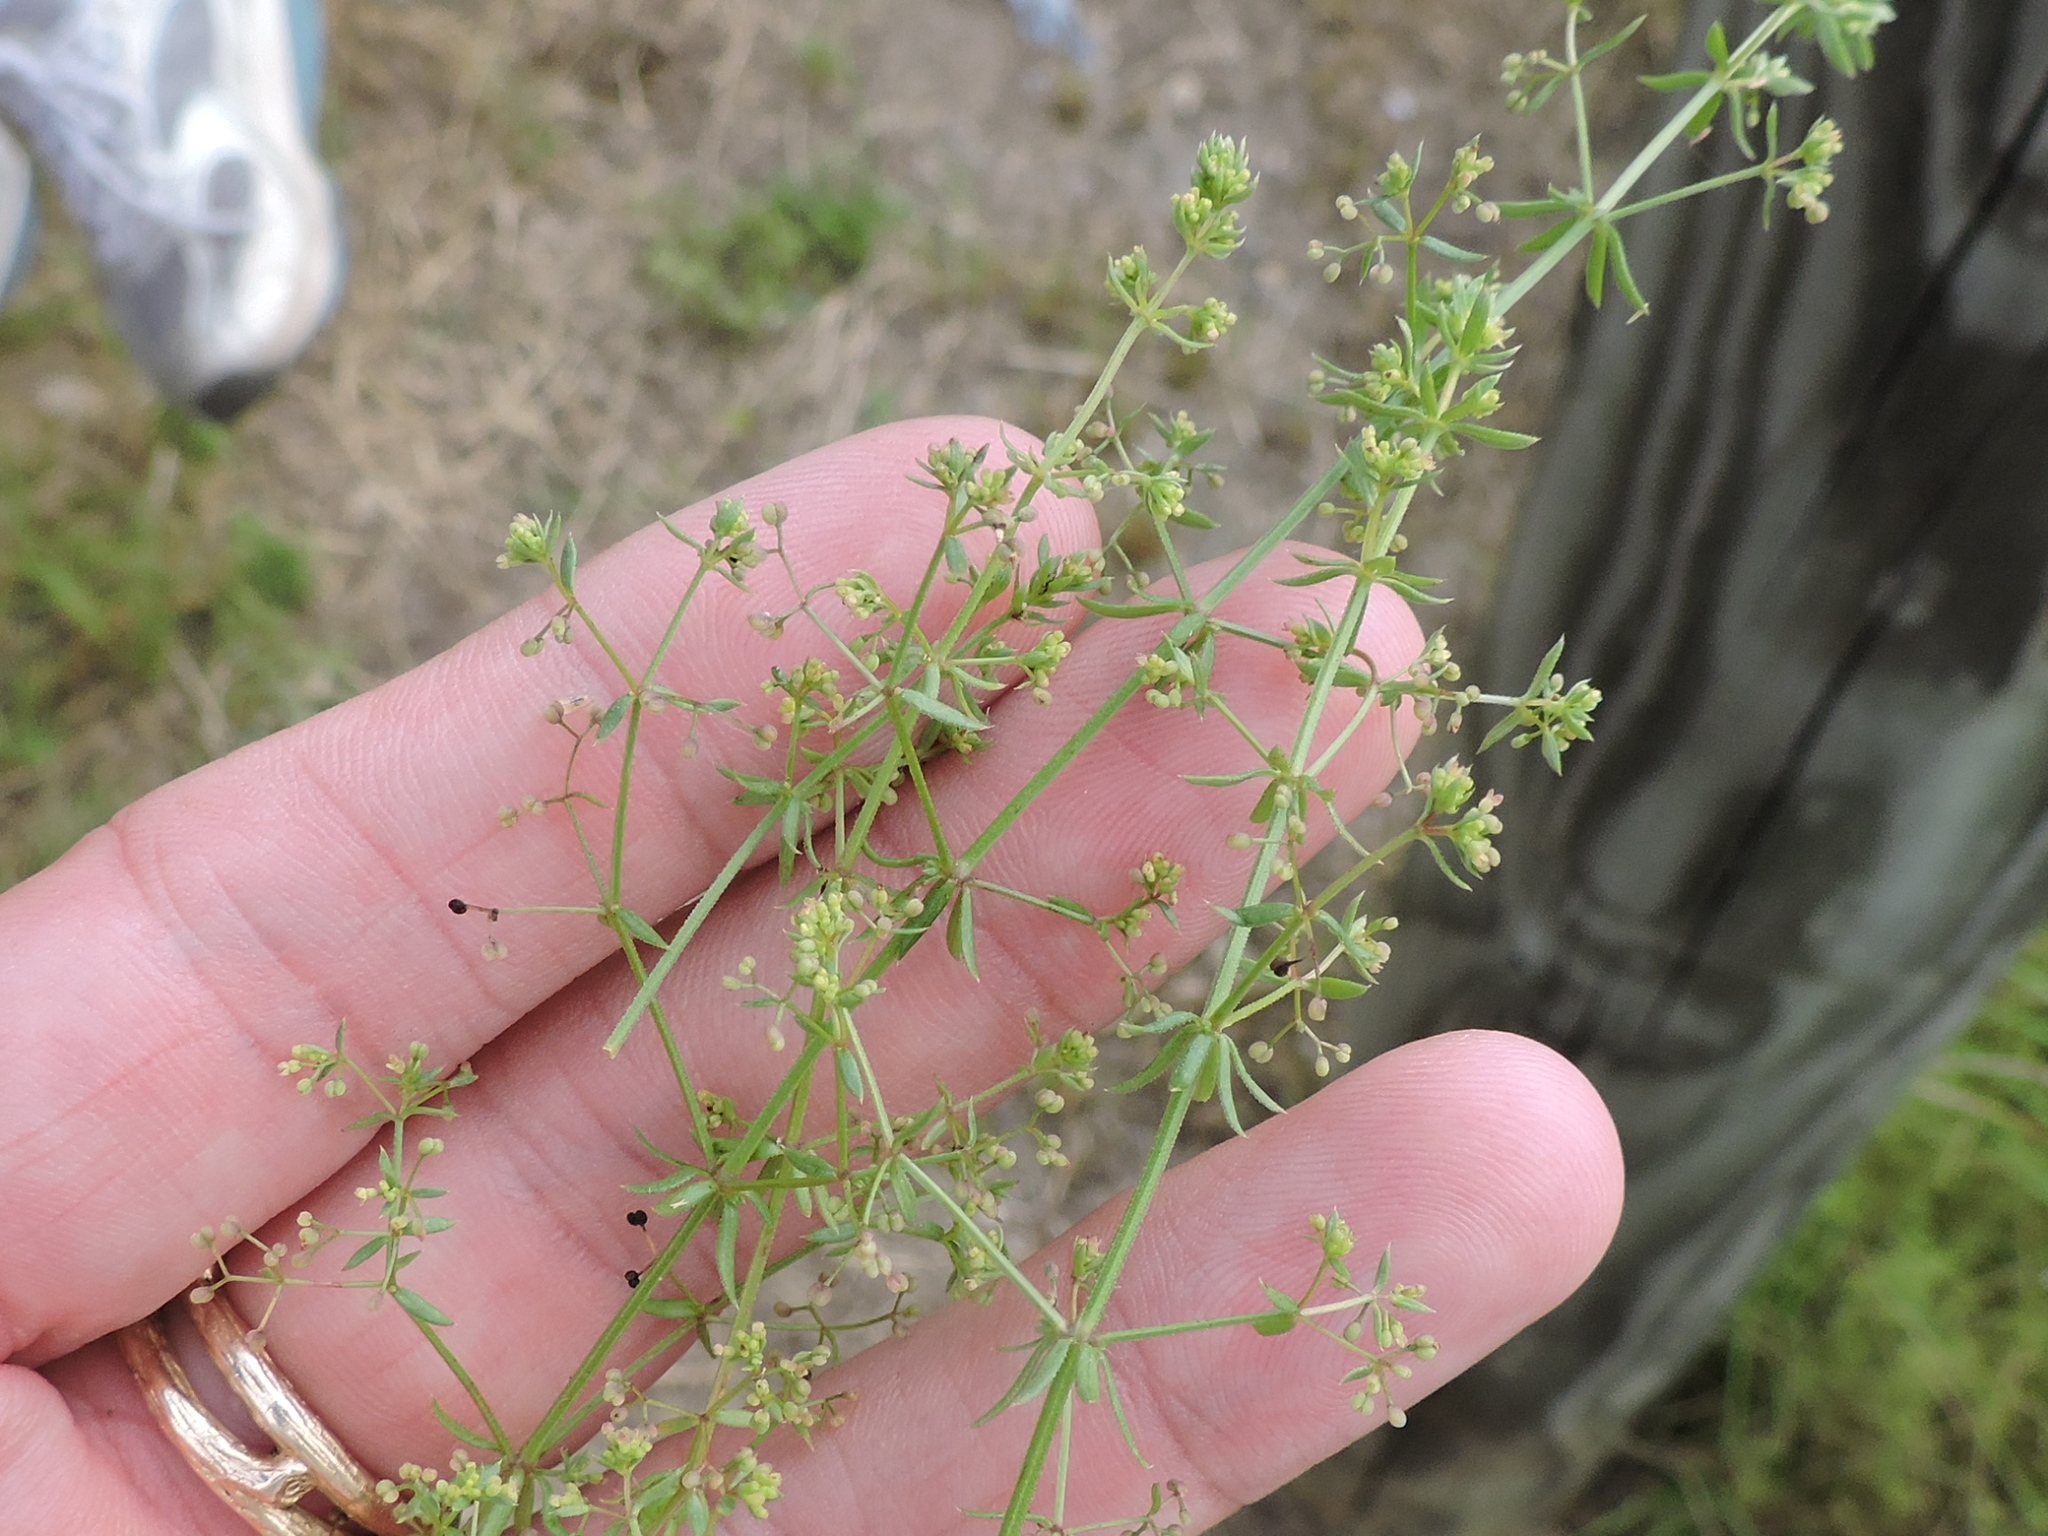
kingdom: Plantae
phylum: Tracheophyta
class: Magnoliopsida
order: Gentianales
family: Rubiaceae
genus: Galium
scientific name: Galium divaricatum
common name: Lamarck's bedstraw
